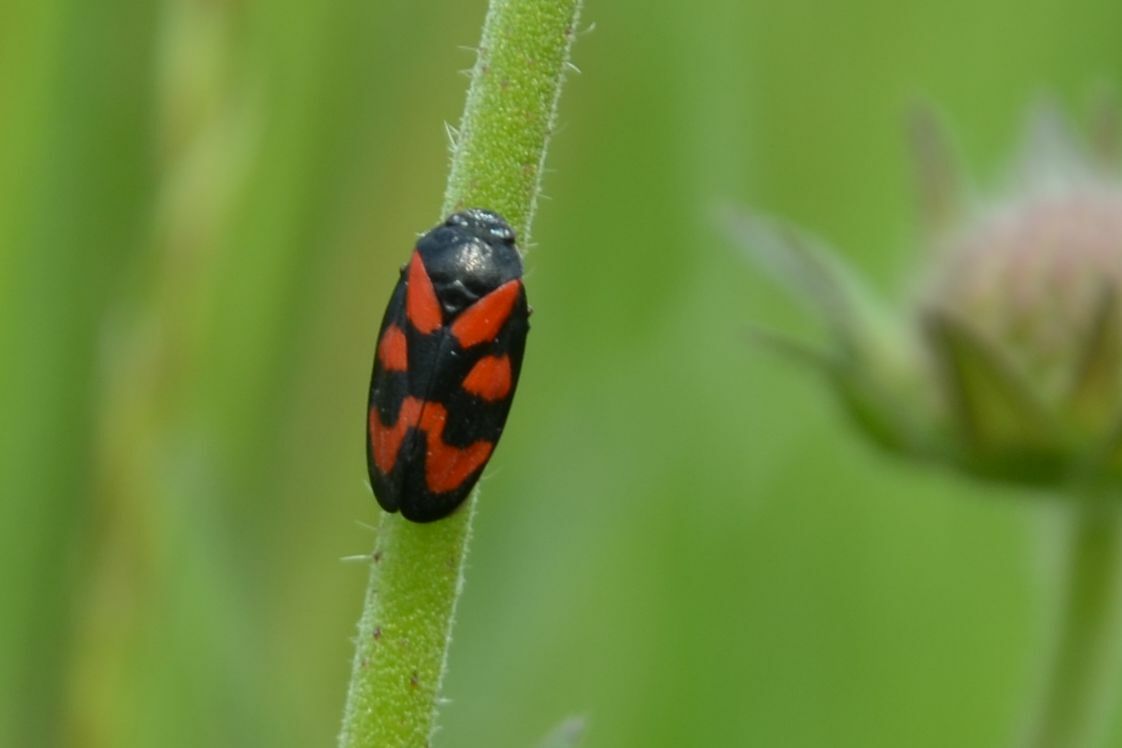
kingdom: Animalia
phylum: Arthropoda
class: Insecta
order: Hemiptera
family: Cercopidae
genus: Cercopis
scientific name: Cercopis vulnerata
